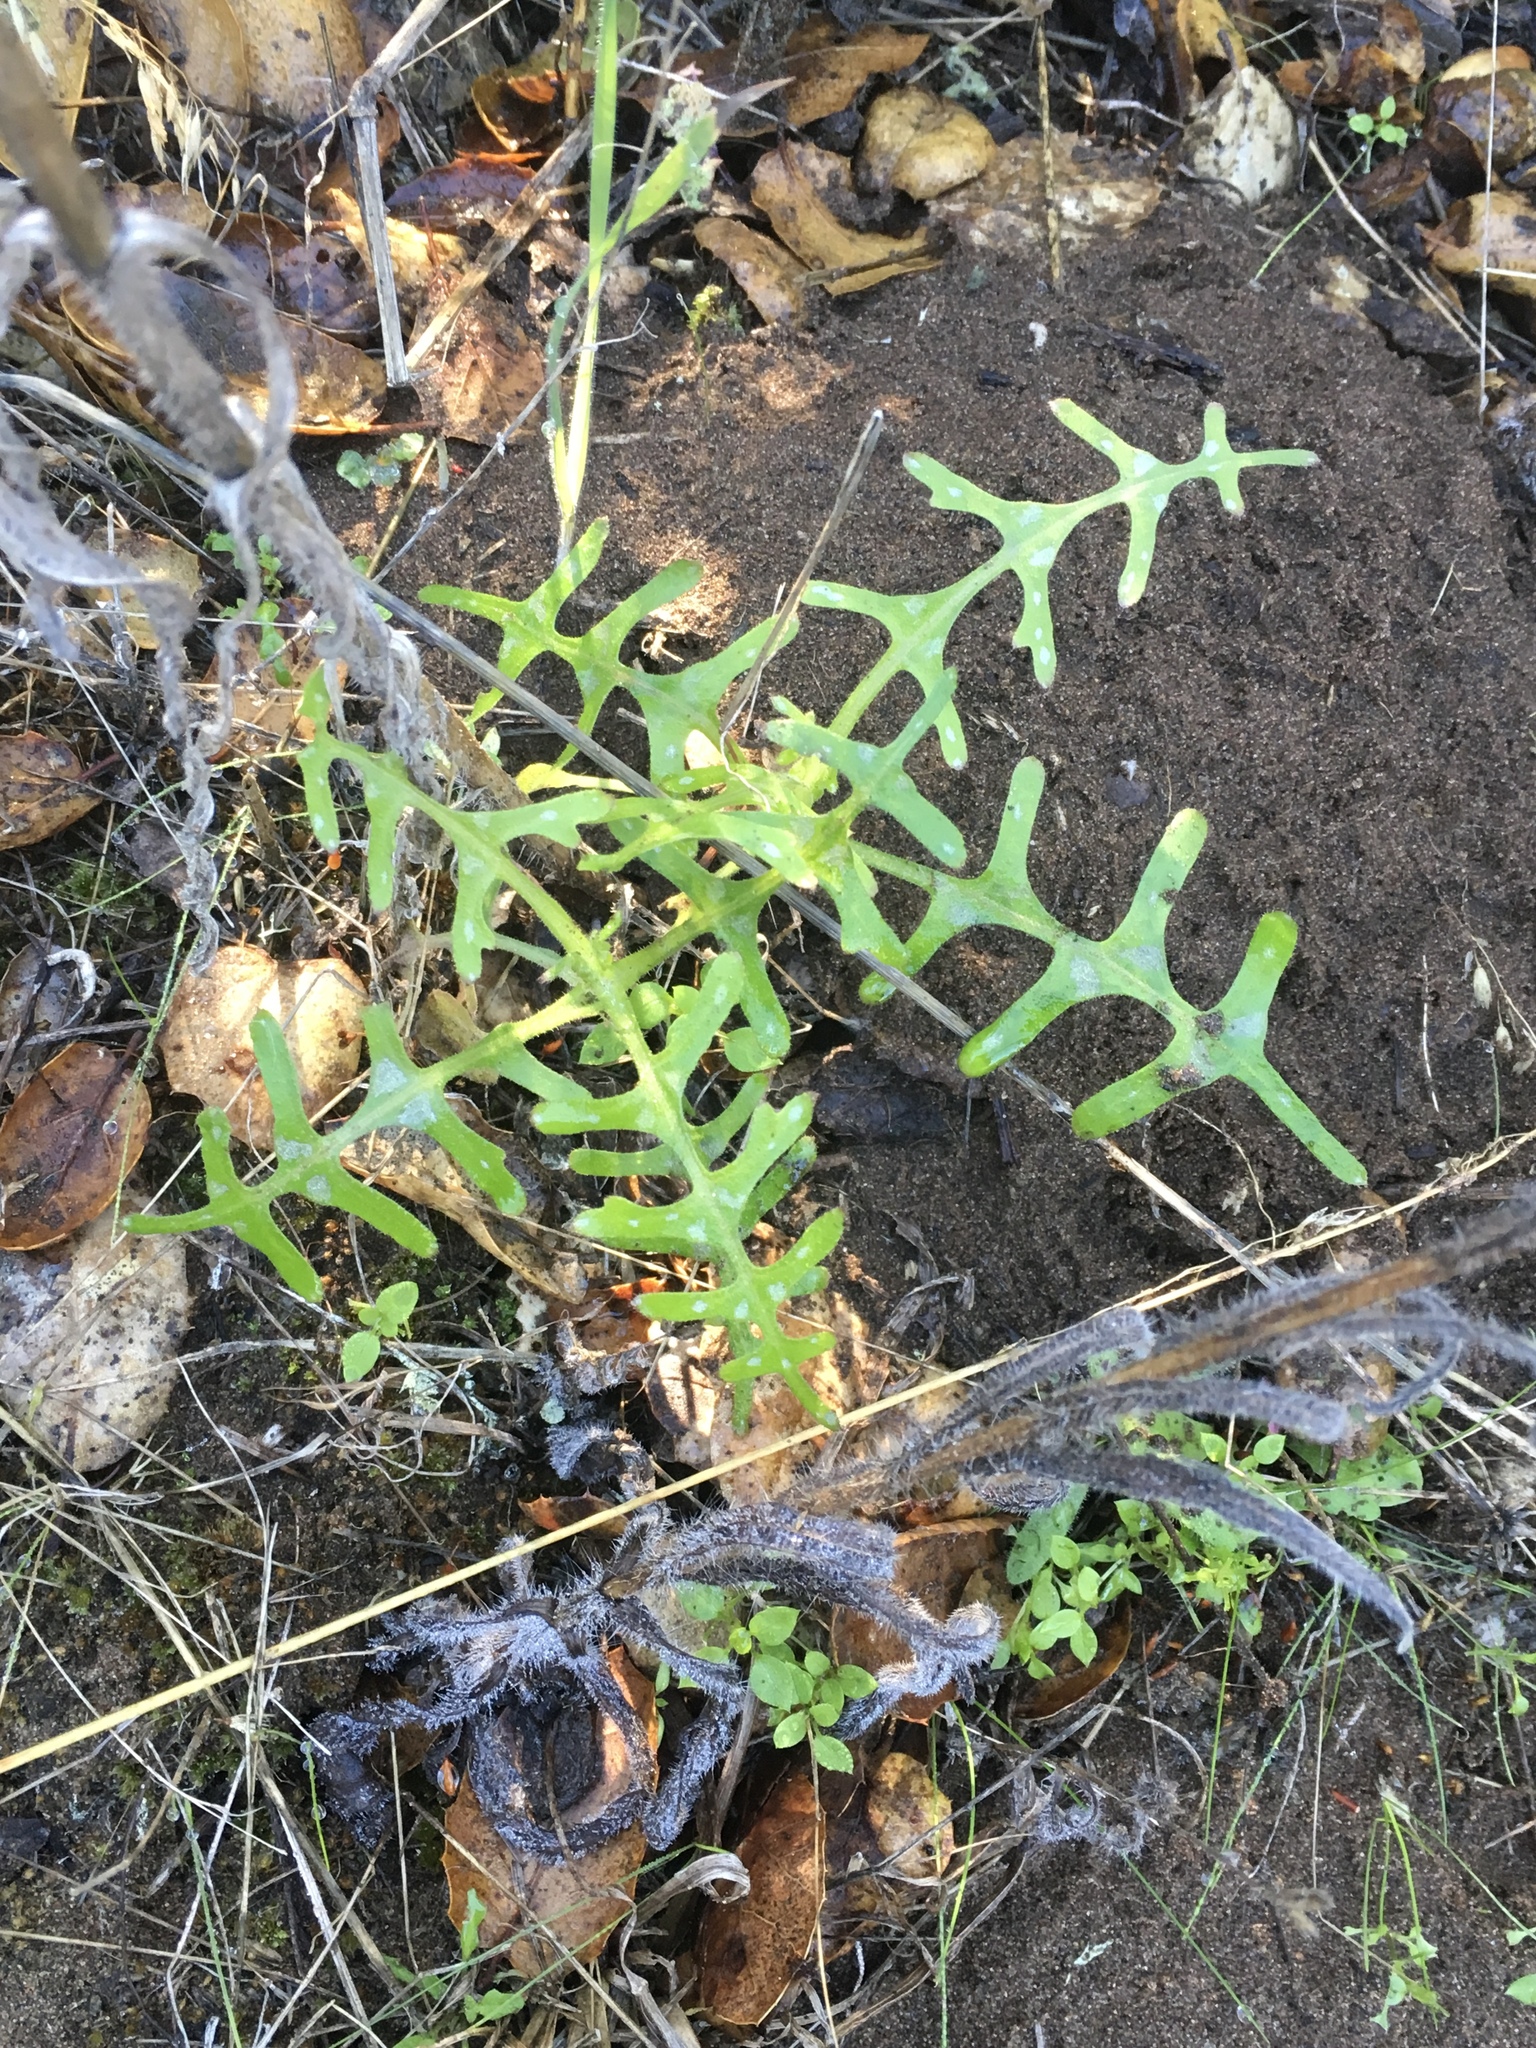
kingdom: Plantae
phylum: Tracheophyta
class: Magnoliopsida
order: Boraginales
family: Hydrophyllaceae
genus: Pholistoma
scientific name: Pholistoma auritum
